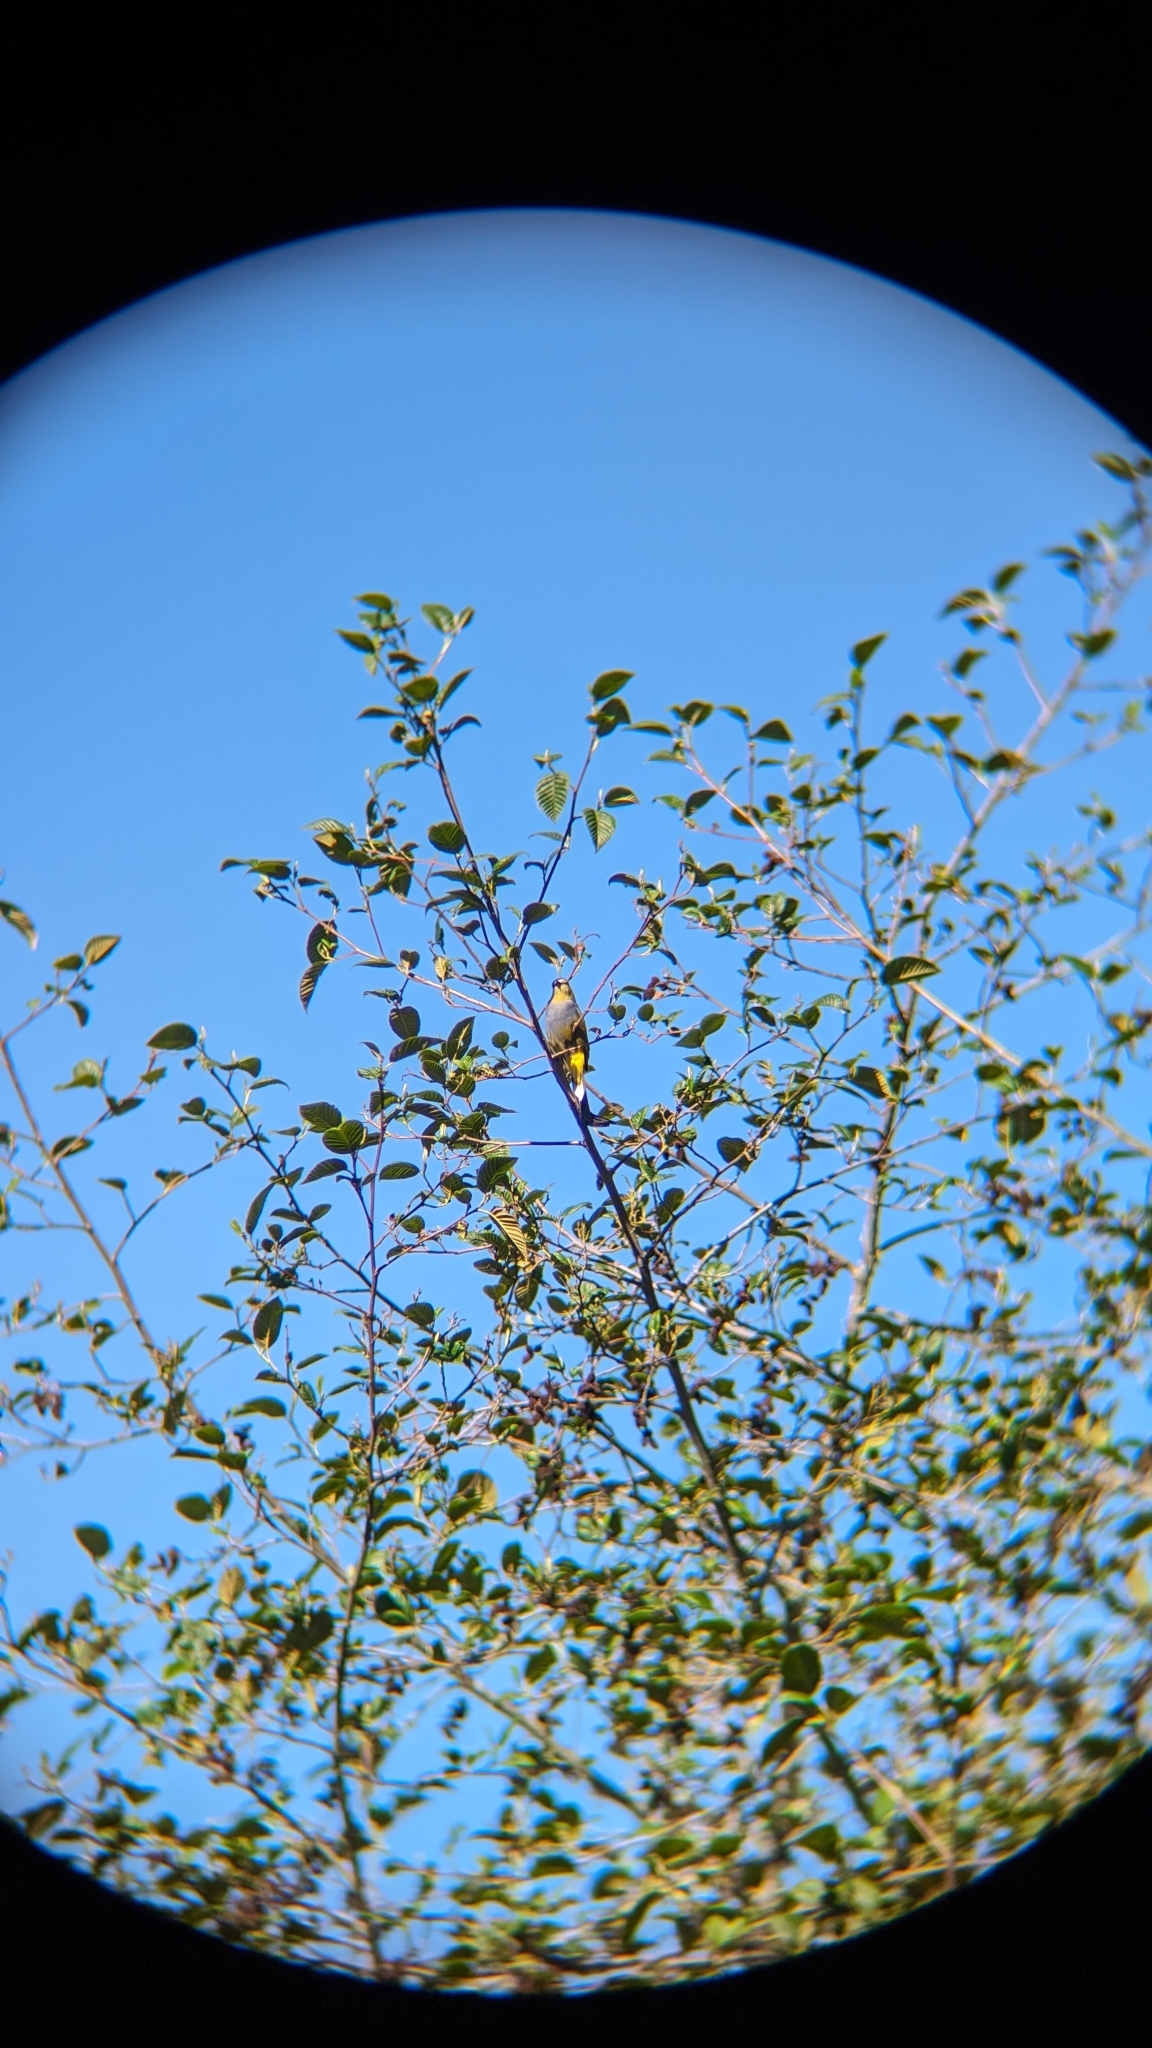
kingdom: Animalia
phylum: Chordata
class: Aves
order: Passeriformes
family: Ptilogonatidae
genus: Ptilogonys
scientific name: Ptilogonys caudatus
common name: Long-tailed silky-flycatcher
